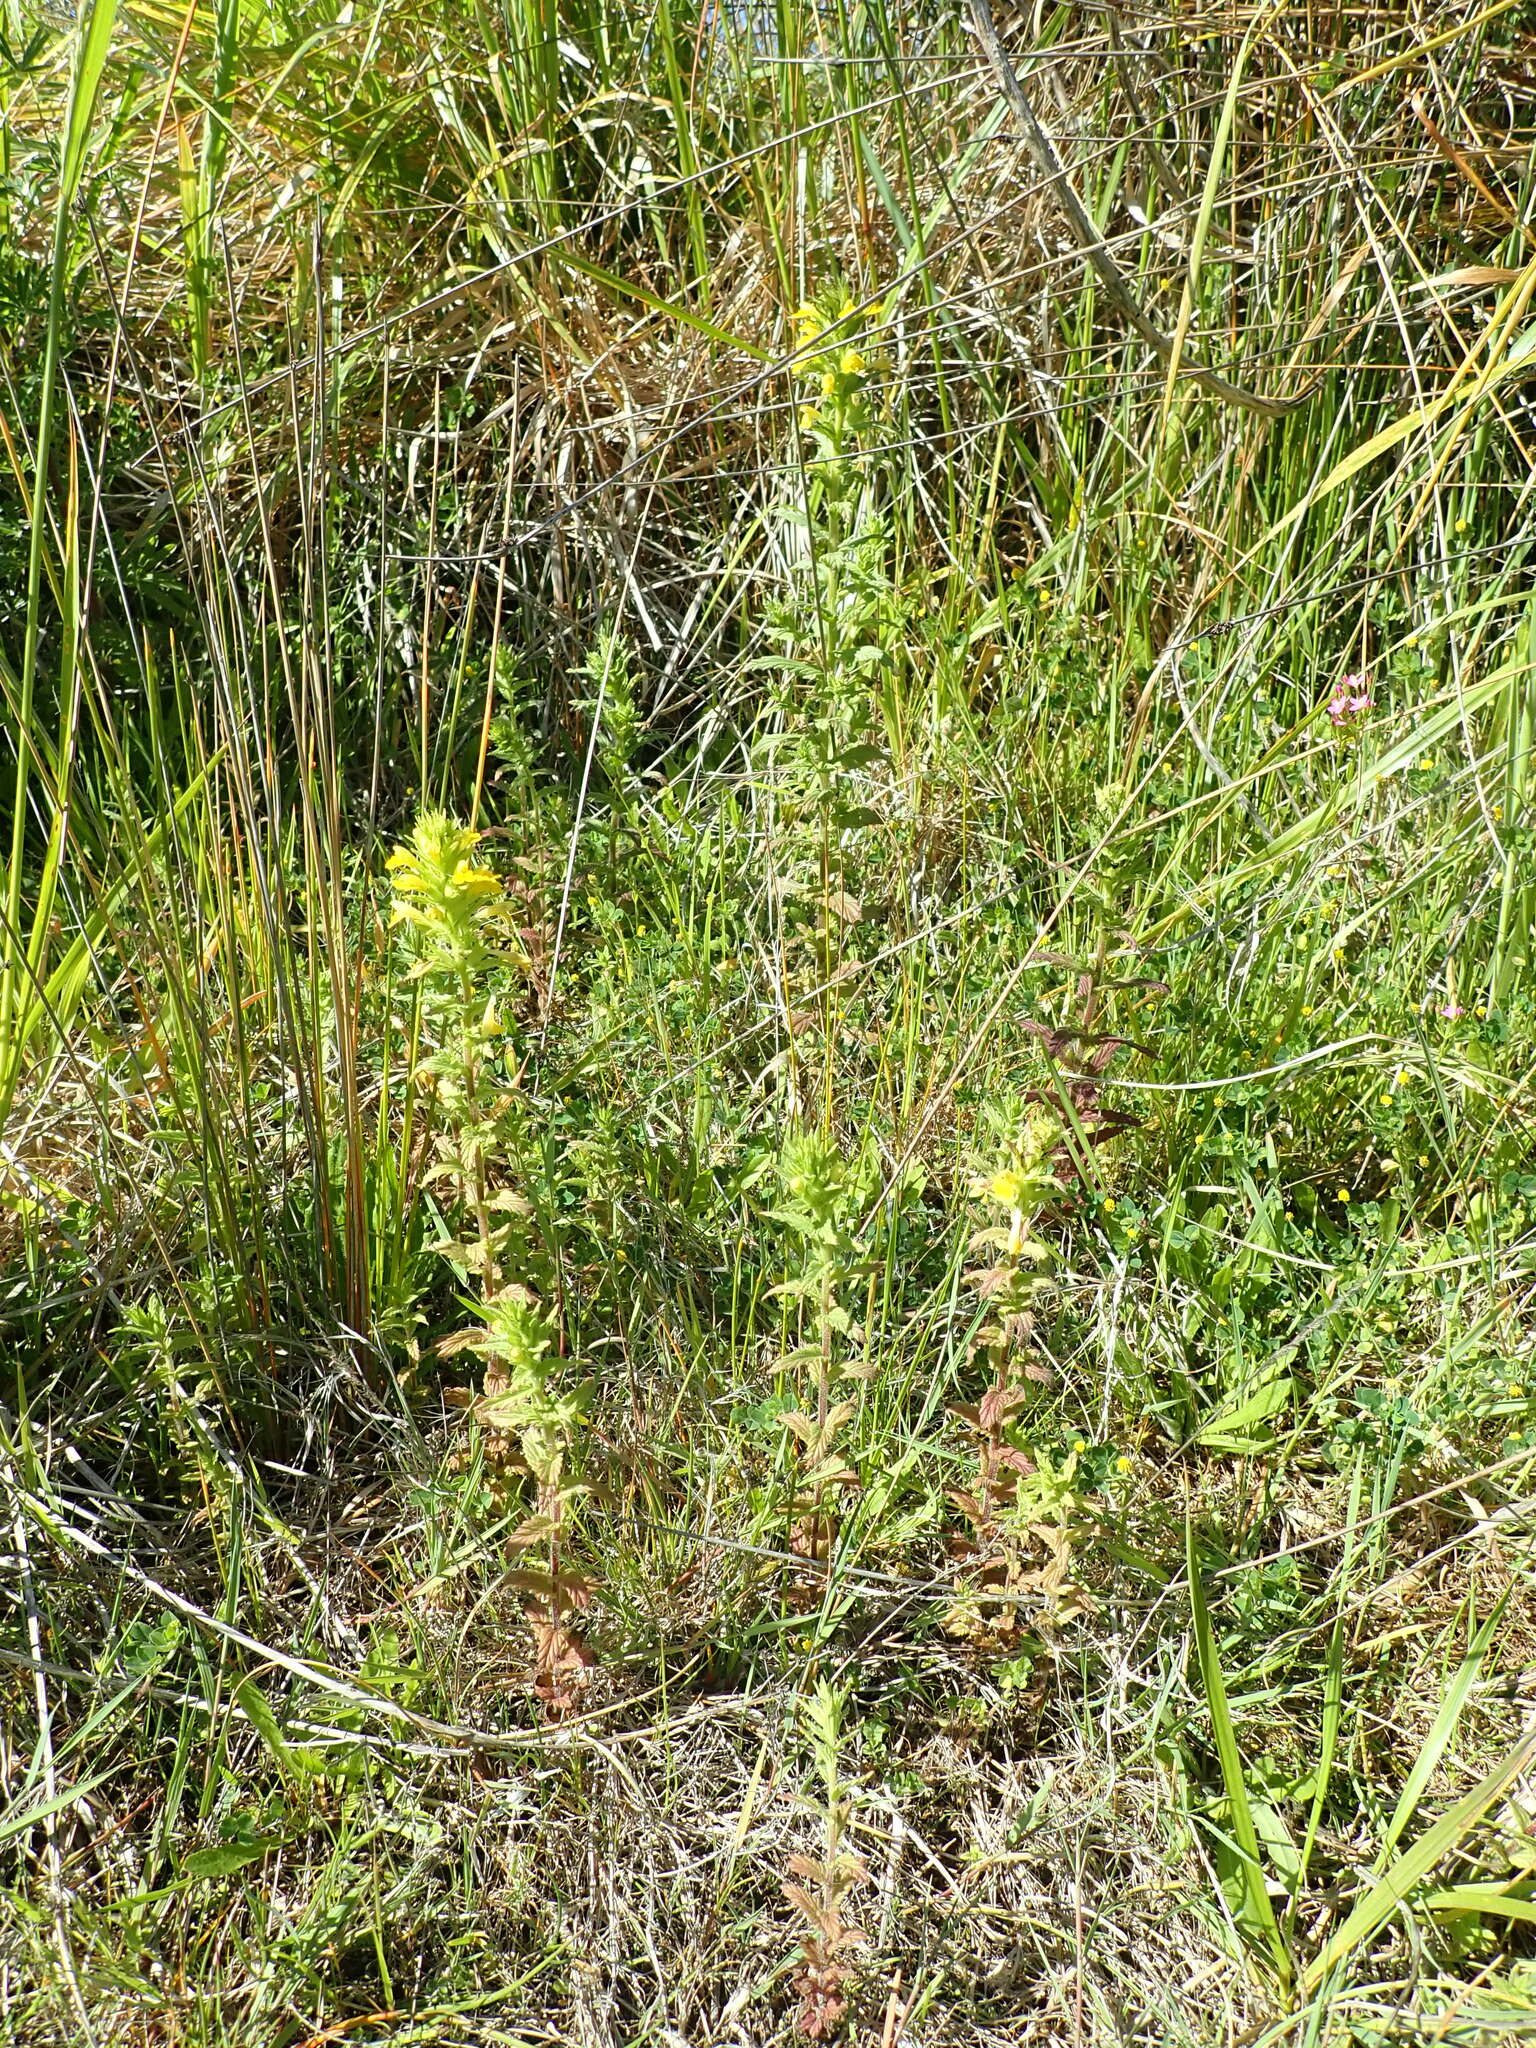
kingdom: Plantae
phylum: Tracheophyta
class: Magnoliopsida
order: Lamiales
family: Orobanchaceae
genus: Bellardia
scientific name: Bellardia viscosa
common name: Sticky parentucellia
